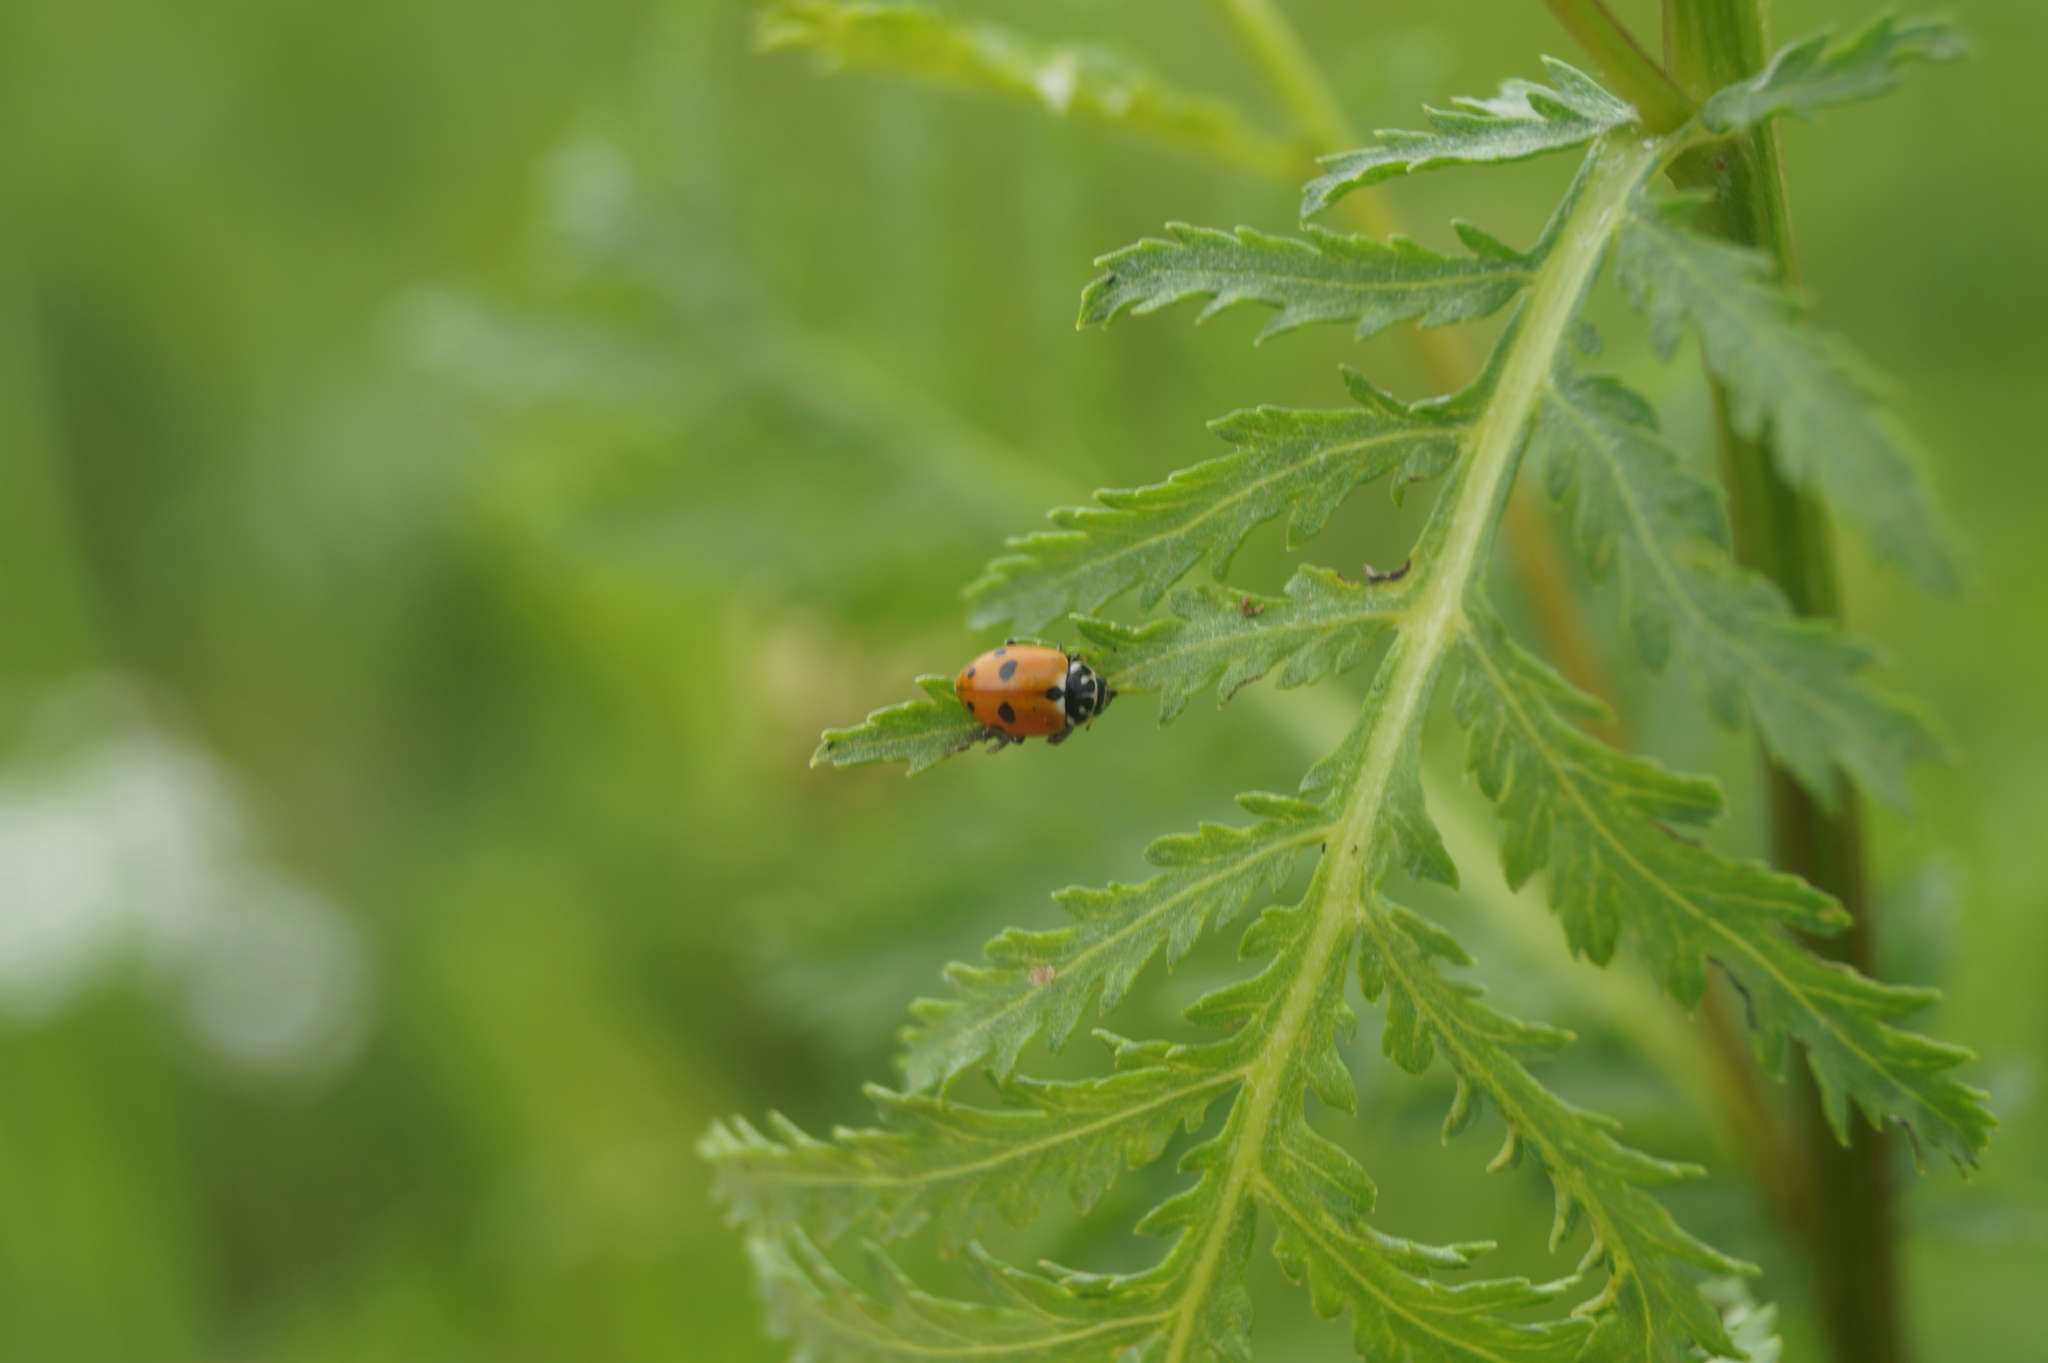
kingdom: Animalia
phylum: Arthropoda
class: Insecta
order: Coleoptera
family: Coccinellidae
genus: Hippodamia
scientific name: Hippodamia variegata
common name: Ladybird beetle
